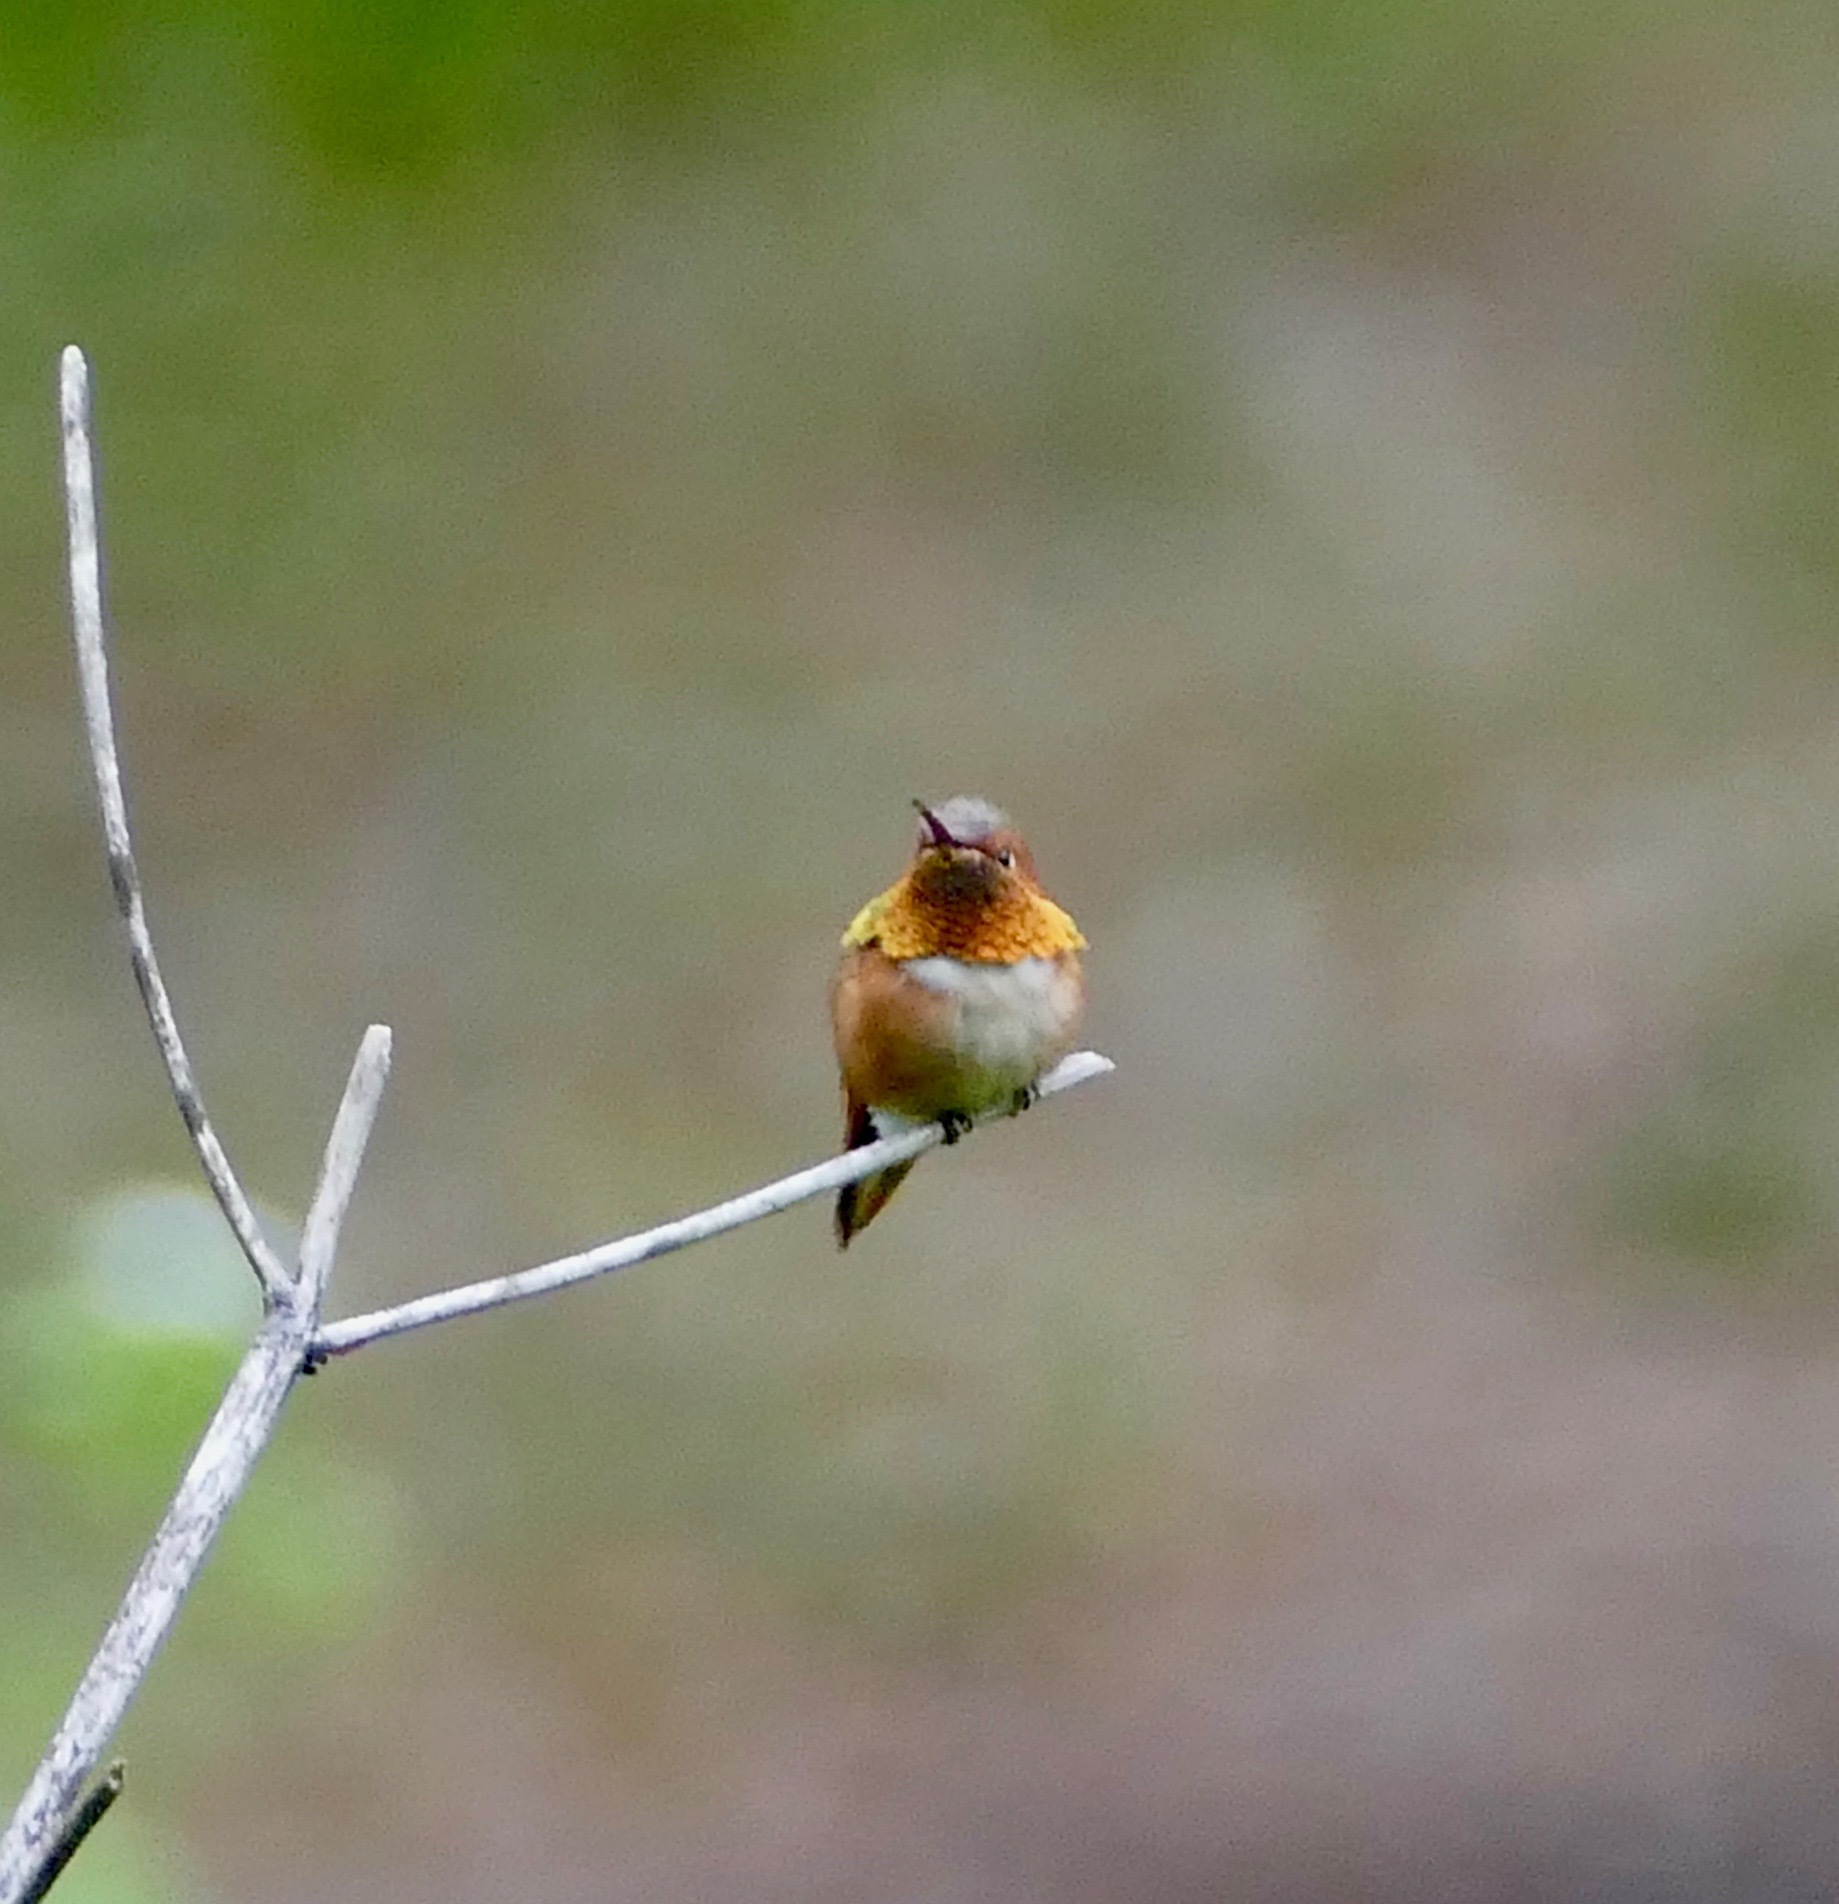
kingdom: Animalia
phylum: Chordata
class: Aves
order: Apodiformes
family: Trochilidae
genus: Selasphorus
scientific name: Selasphorus
